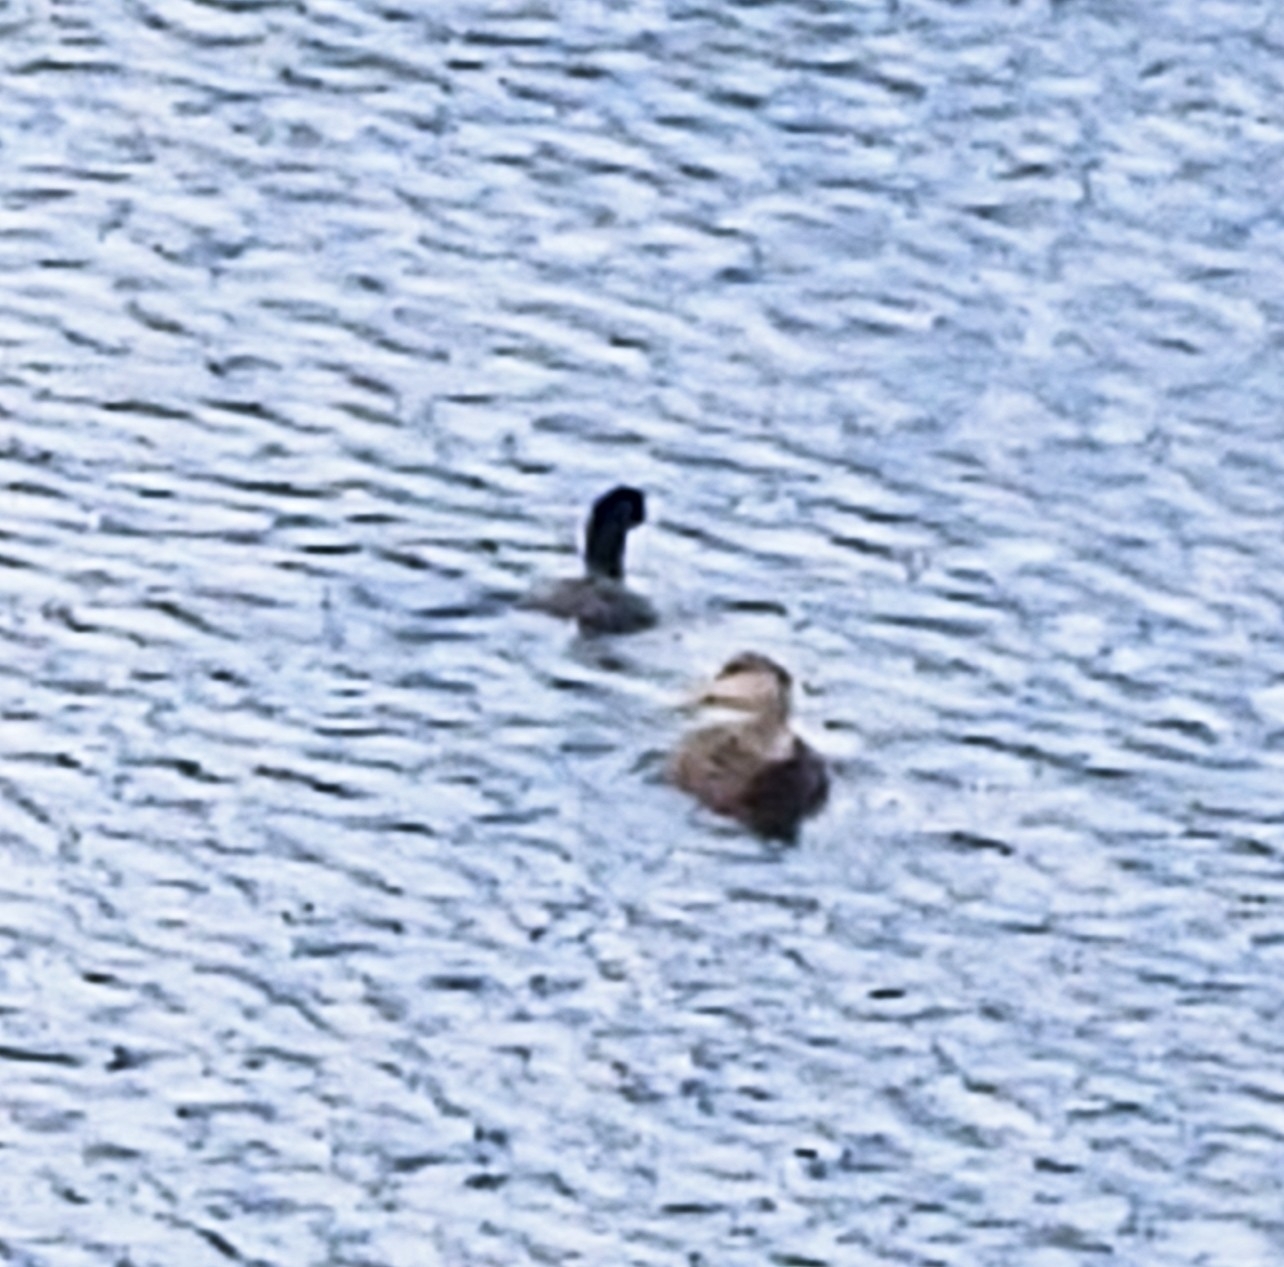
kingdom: Animalia
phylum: Chordata
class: Aves
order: Anseriformes
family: Anatidae
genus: Anas
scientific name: Anas
